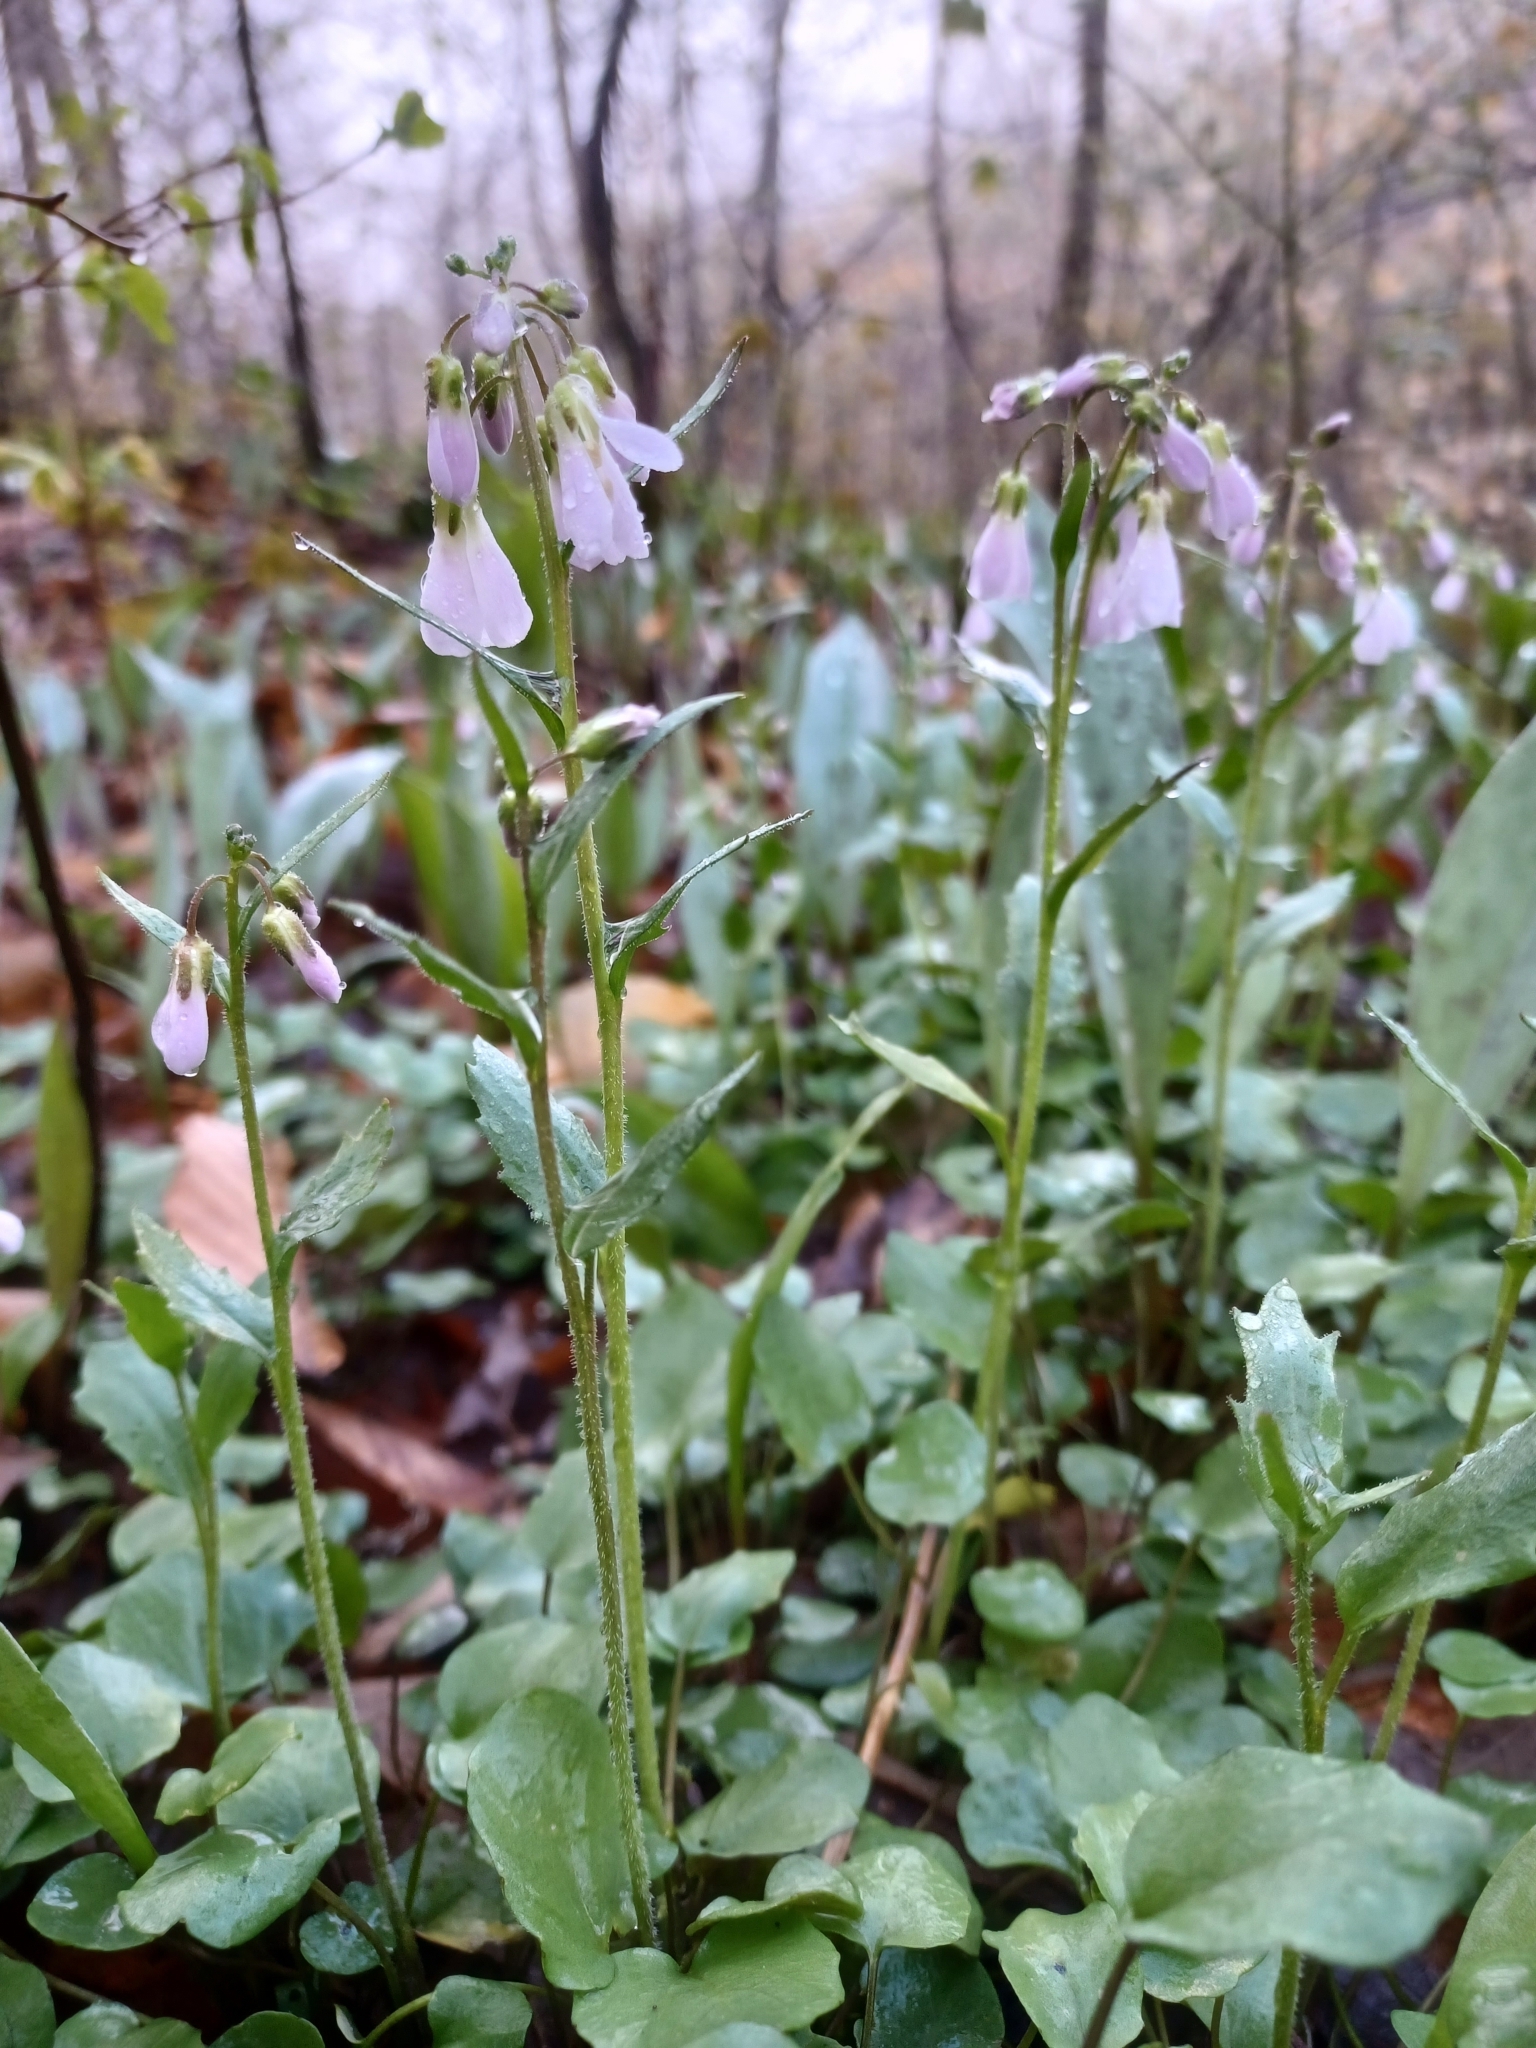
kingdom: Plantae
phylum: Tracheophyta
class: Magnoliopsida
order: Brassicales
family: Brassicaceae
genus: Cardamine
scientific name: Cardamine douglassii
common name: Purple cress
